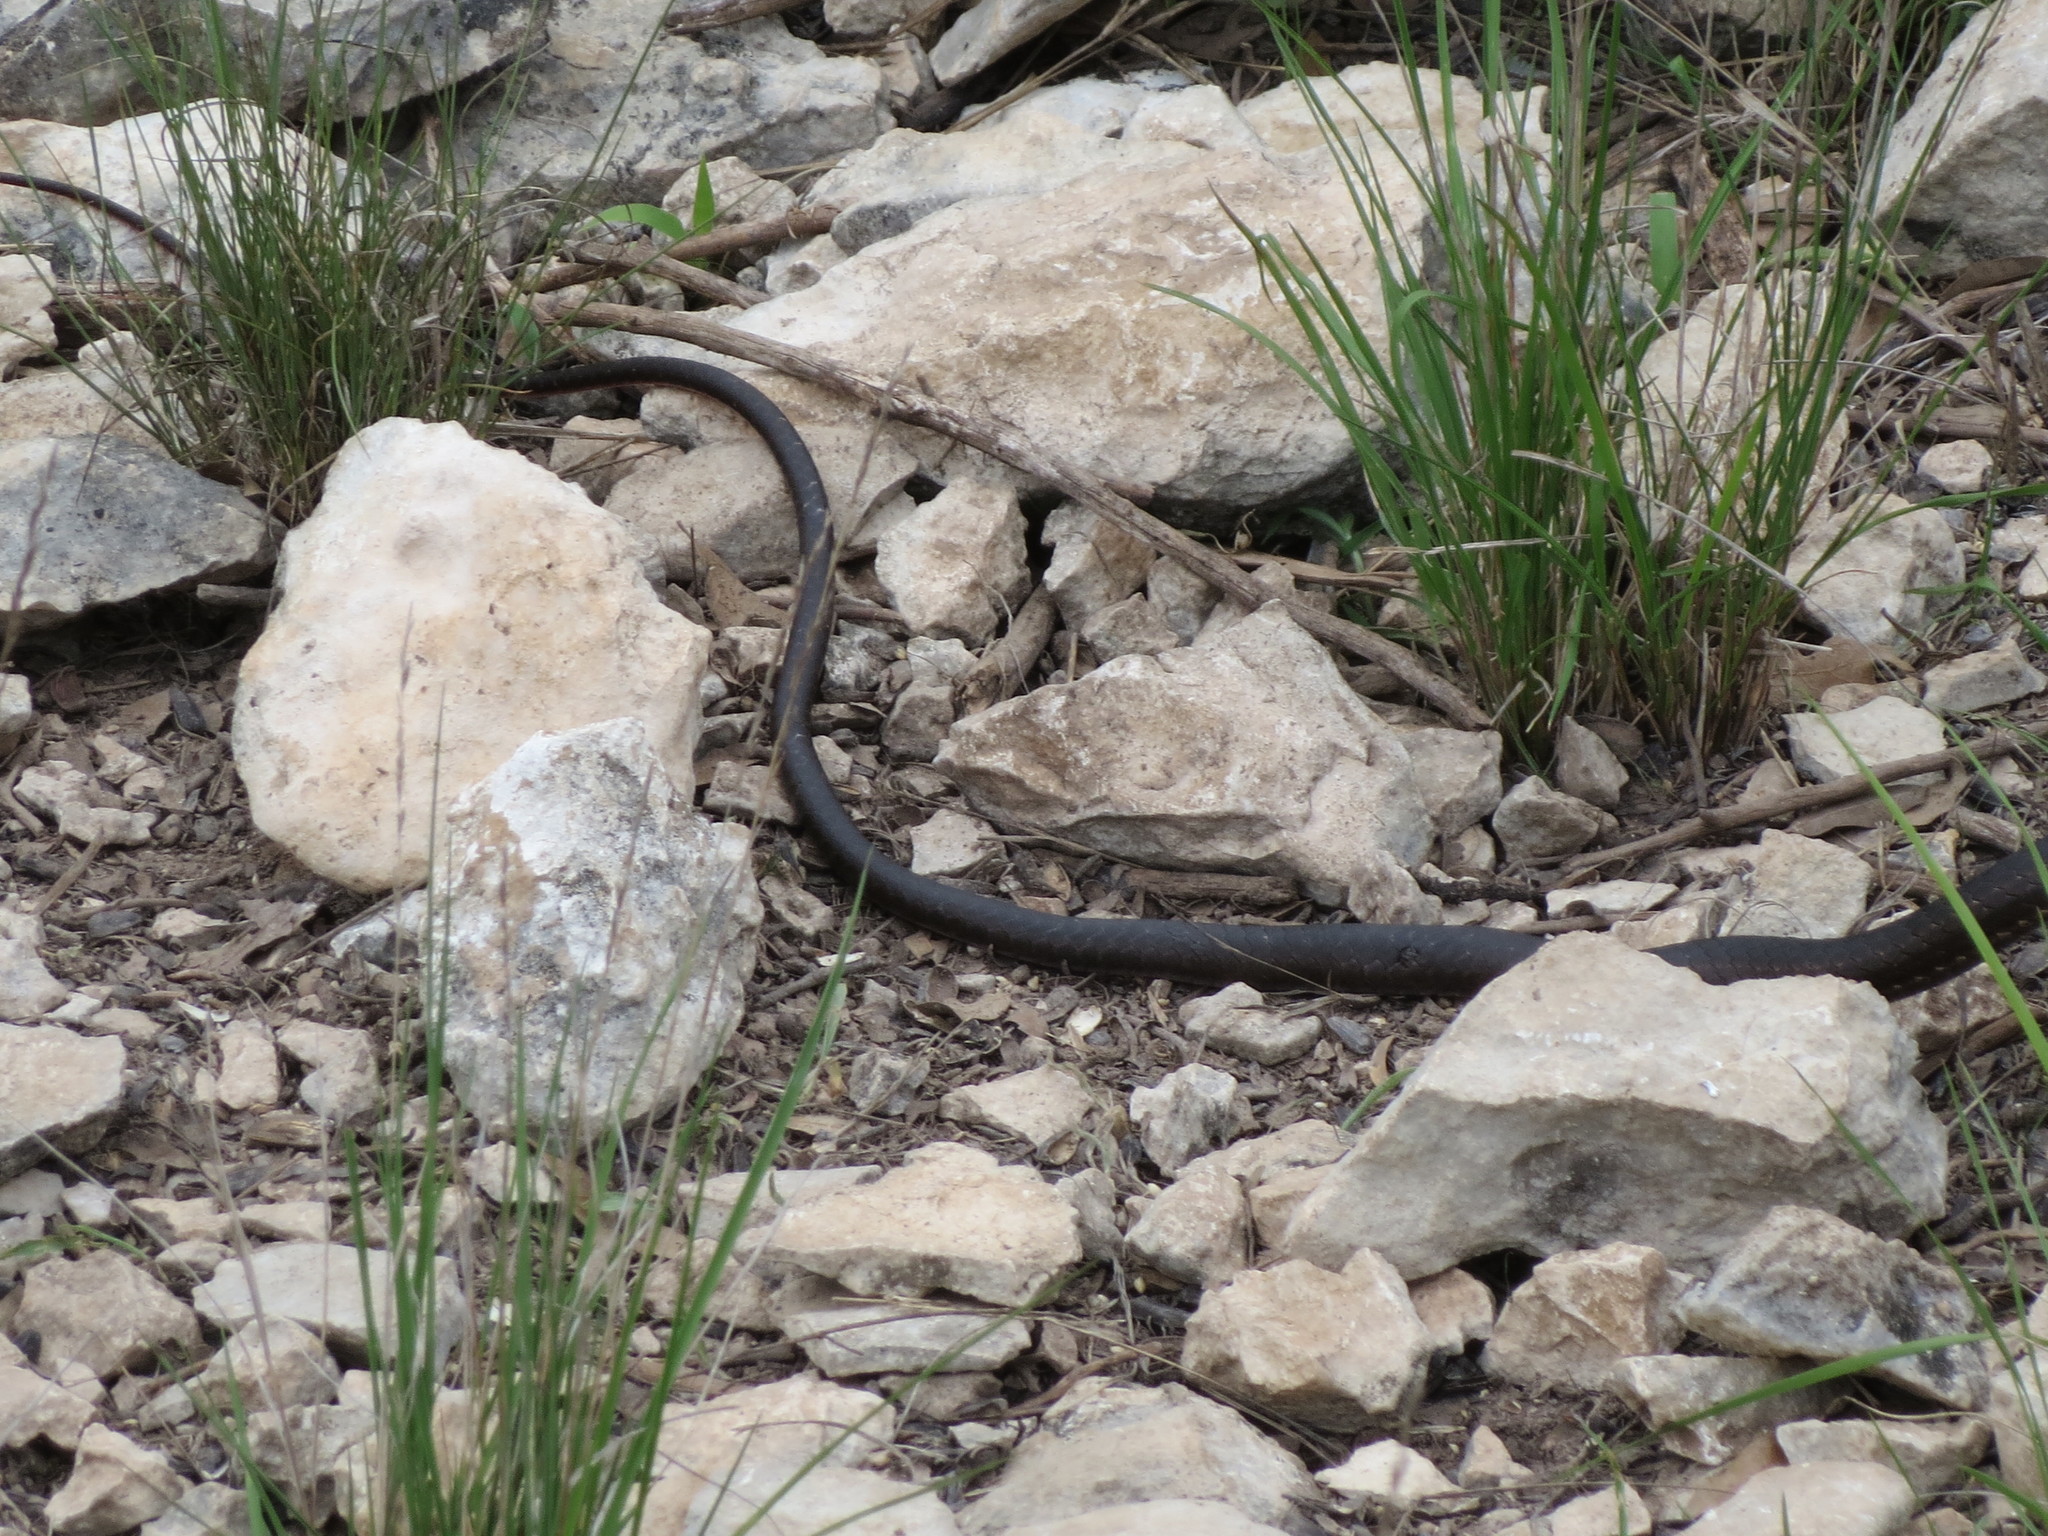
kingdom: Animalia
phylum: Chordata
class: Squamata
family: Colubridae
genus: Masticophis
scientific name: Masticophis taeniatus
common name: Striped whipsnake
